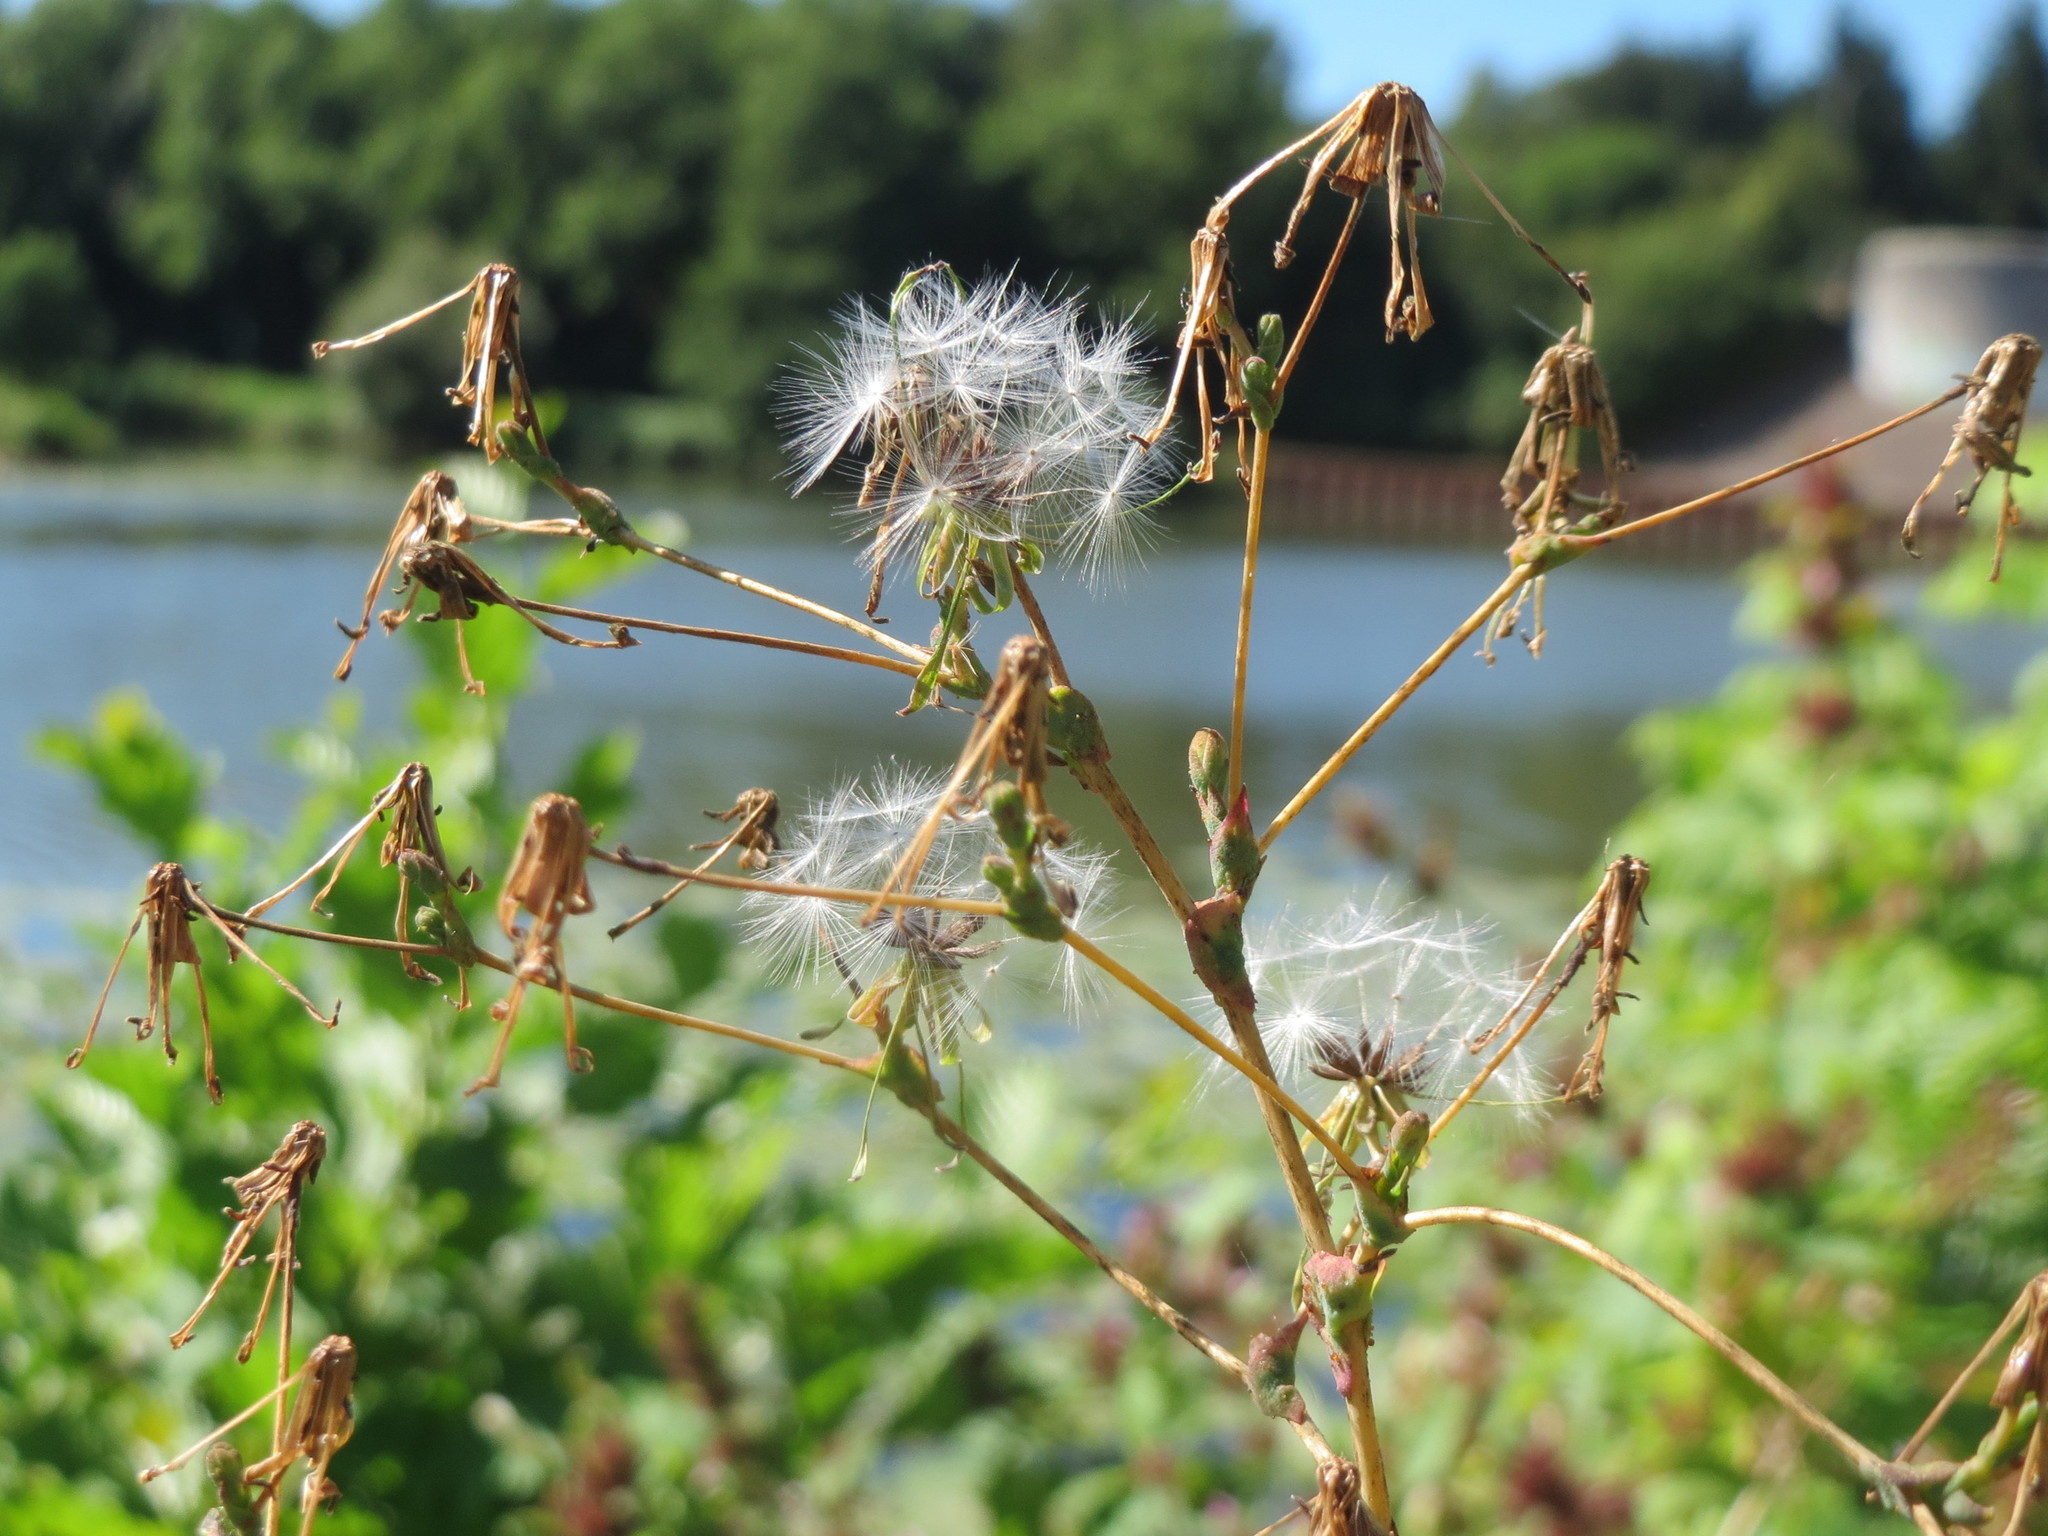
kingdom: Plantae
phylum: Tracheophyta
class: Magnoliopsida
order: Asterales
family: Asteraceae
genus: Lactuca
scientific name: Lactuca serriola
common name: Prickly lettuce
